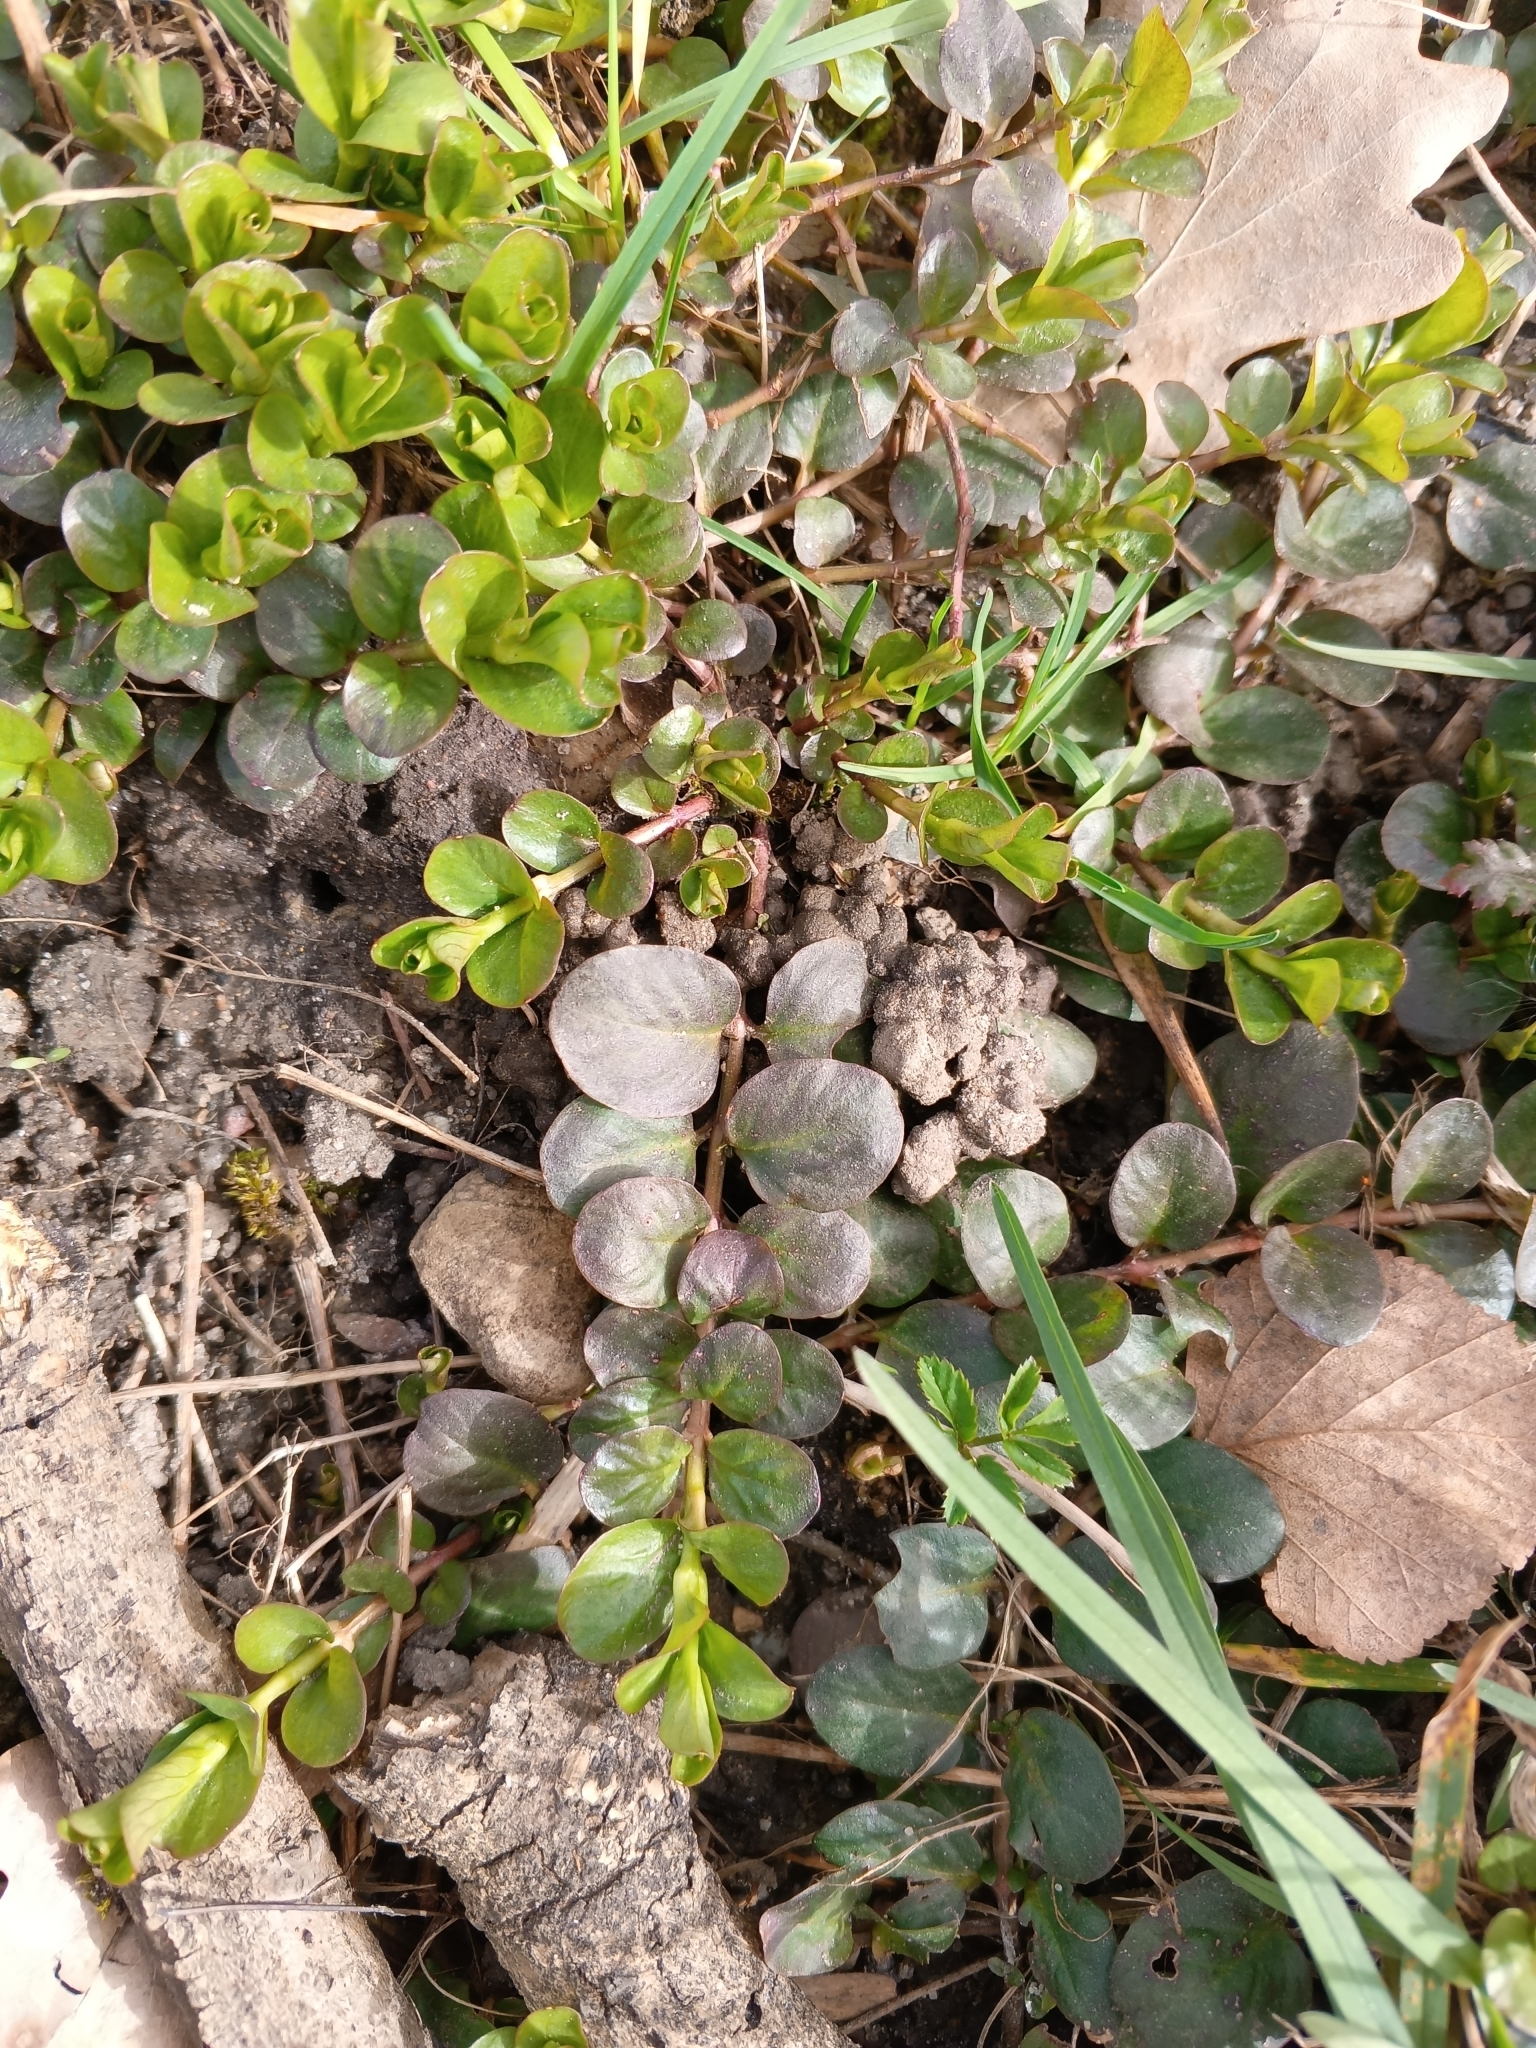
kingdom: Plantae
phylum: Tracheophyta
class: Magnoliopsida
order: Ericales
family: Primulaceae
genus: Lysimachia
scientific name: Lysimachia nummularia
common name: Moneywort
